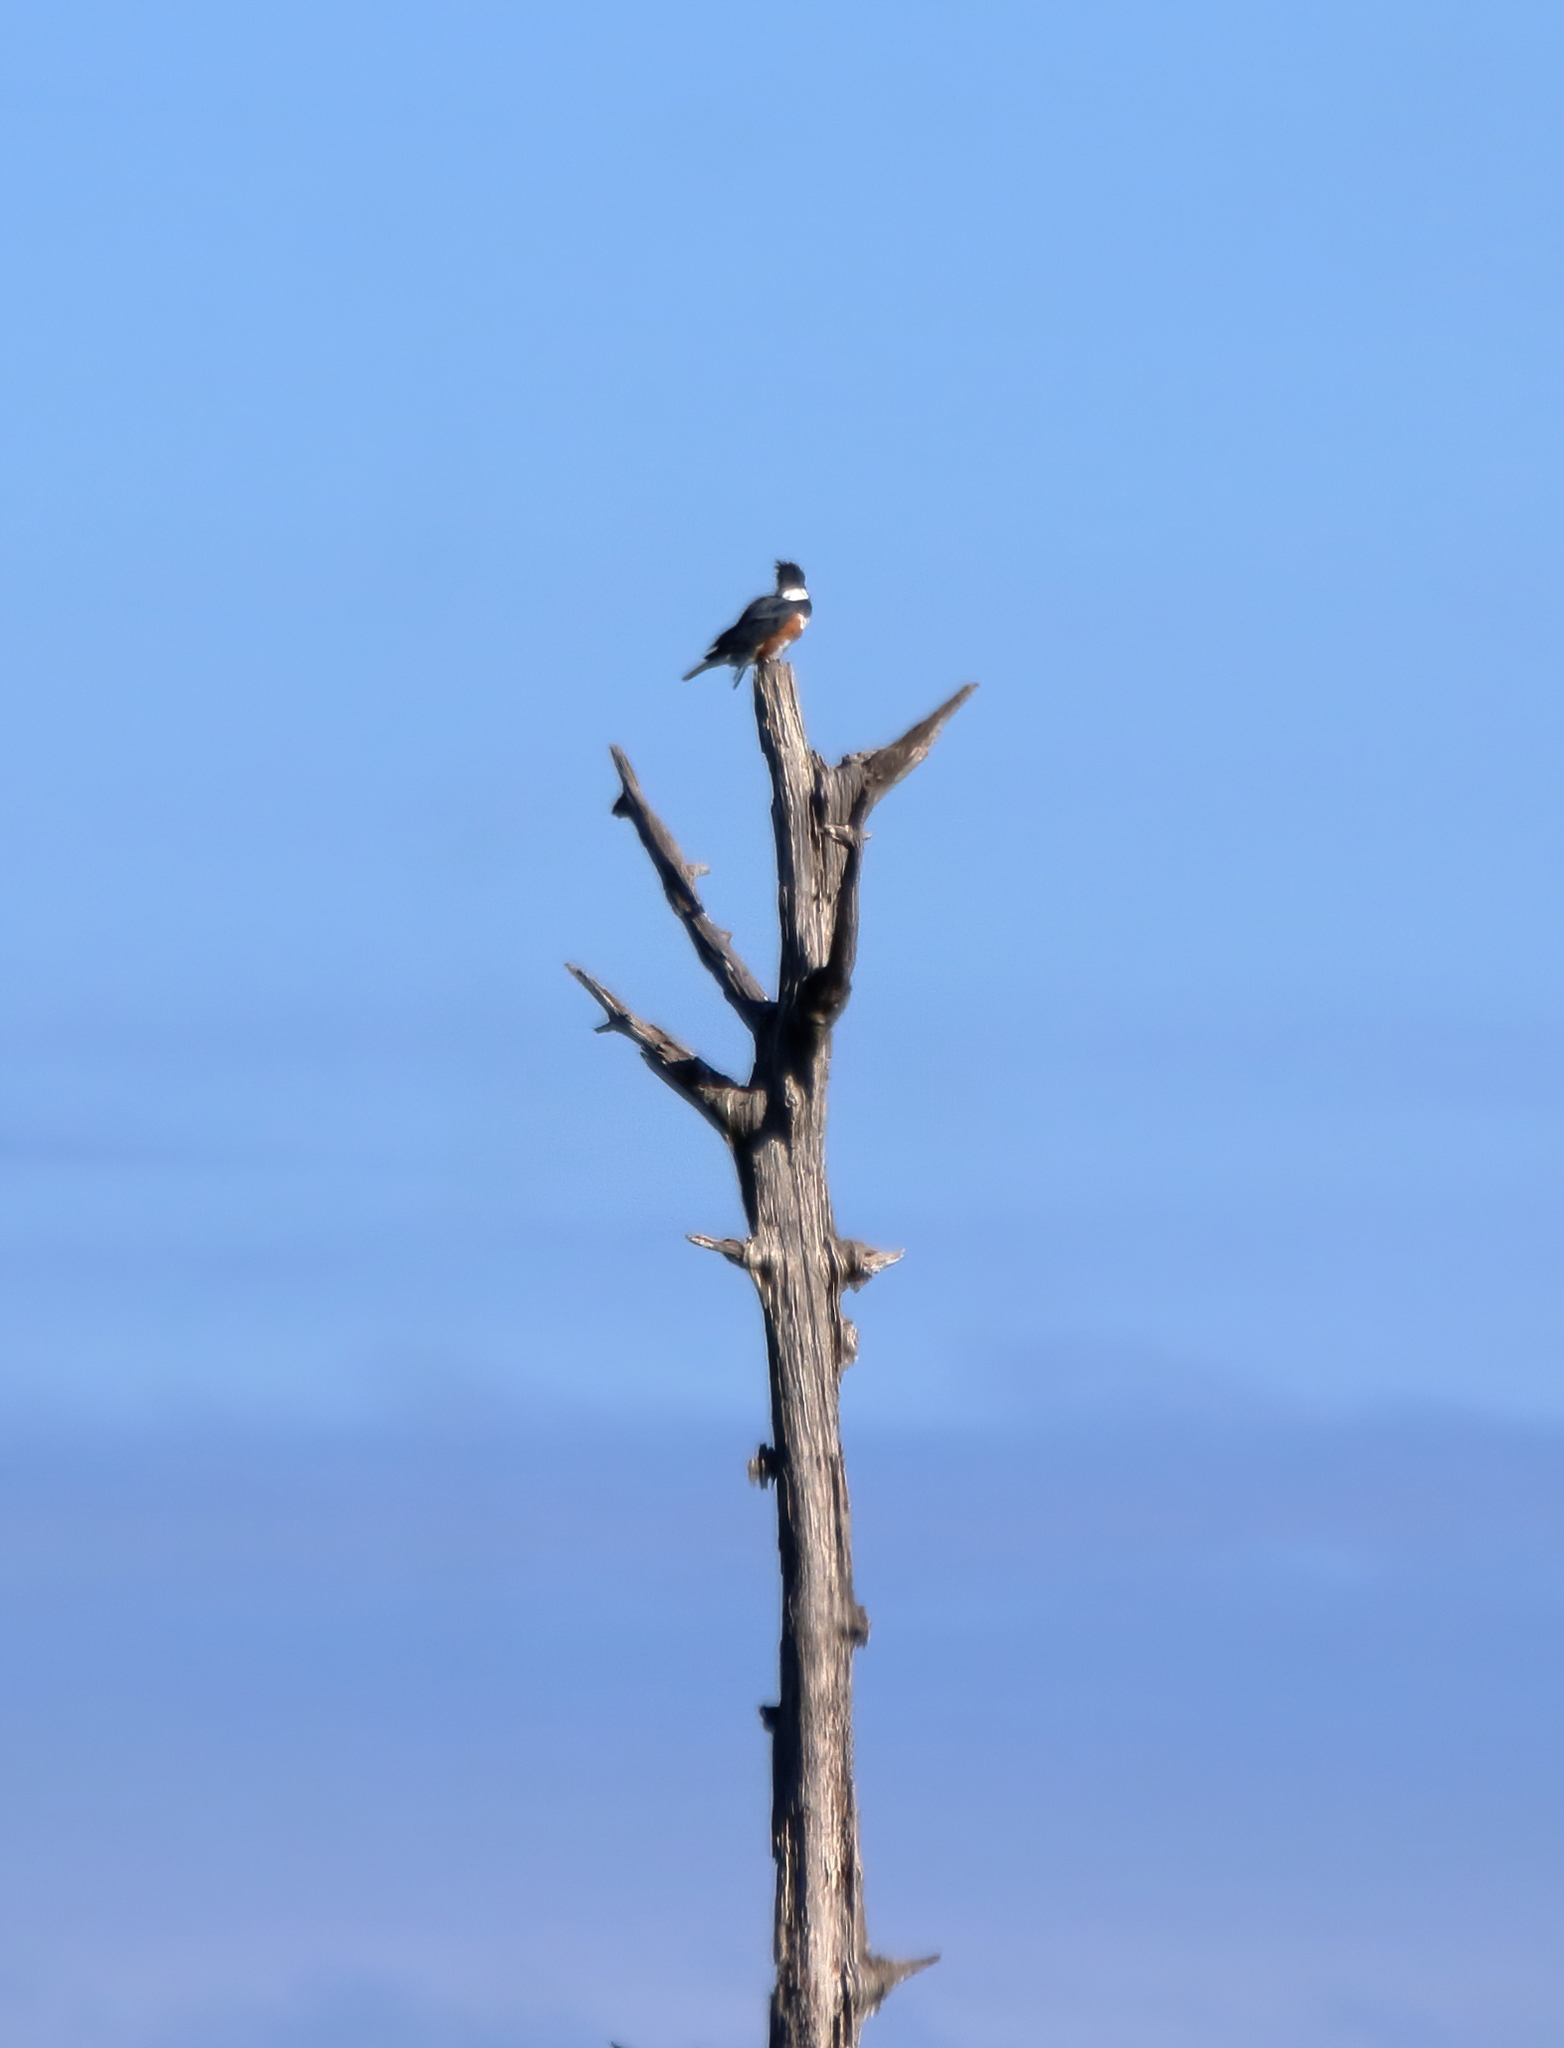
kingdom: Animalia
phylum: Chordata
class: Aves
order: Coraciiformes
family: Alcedinidae
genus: Megaceryle
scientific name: Megaceryle alcyon
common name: Belted kingfisher
